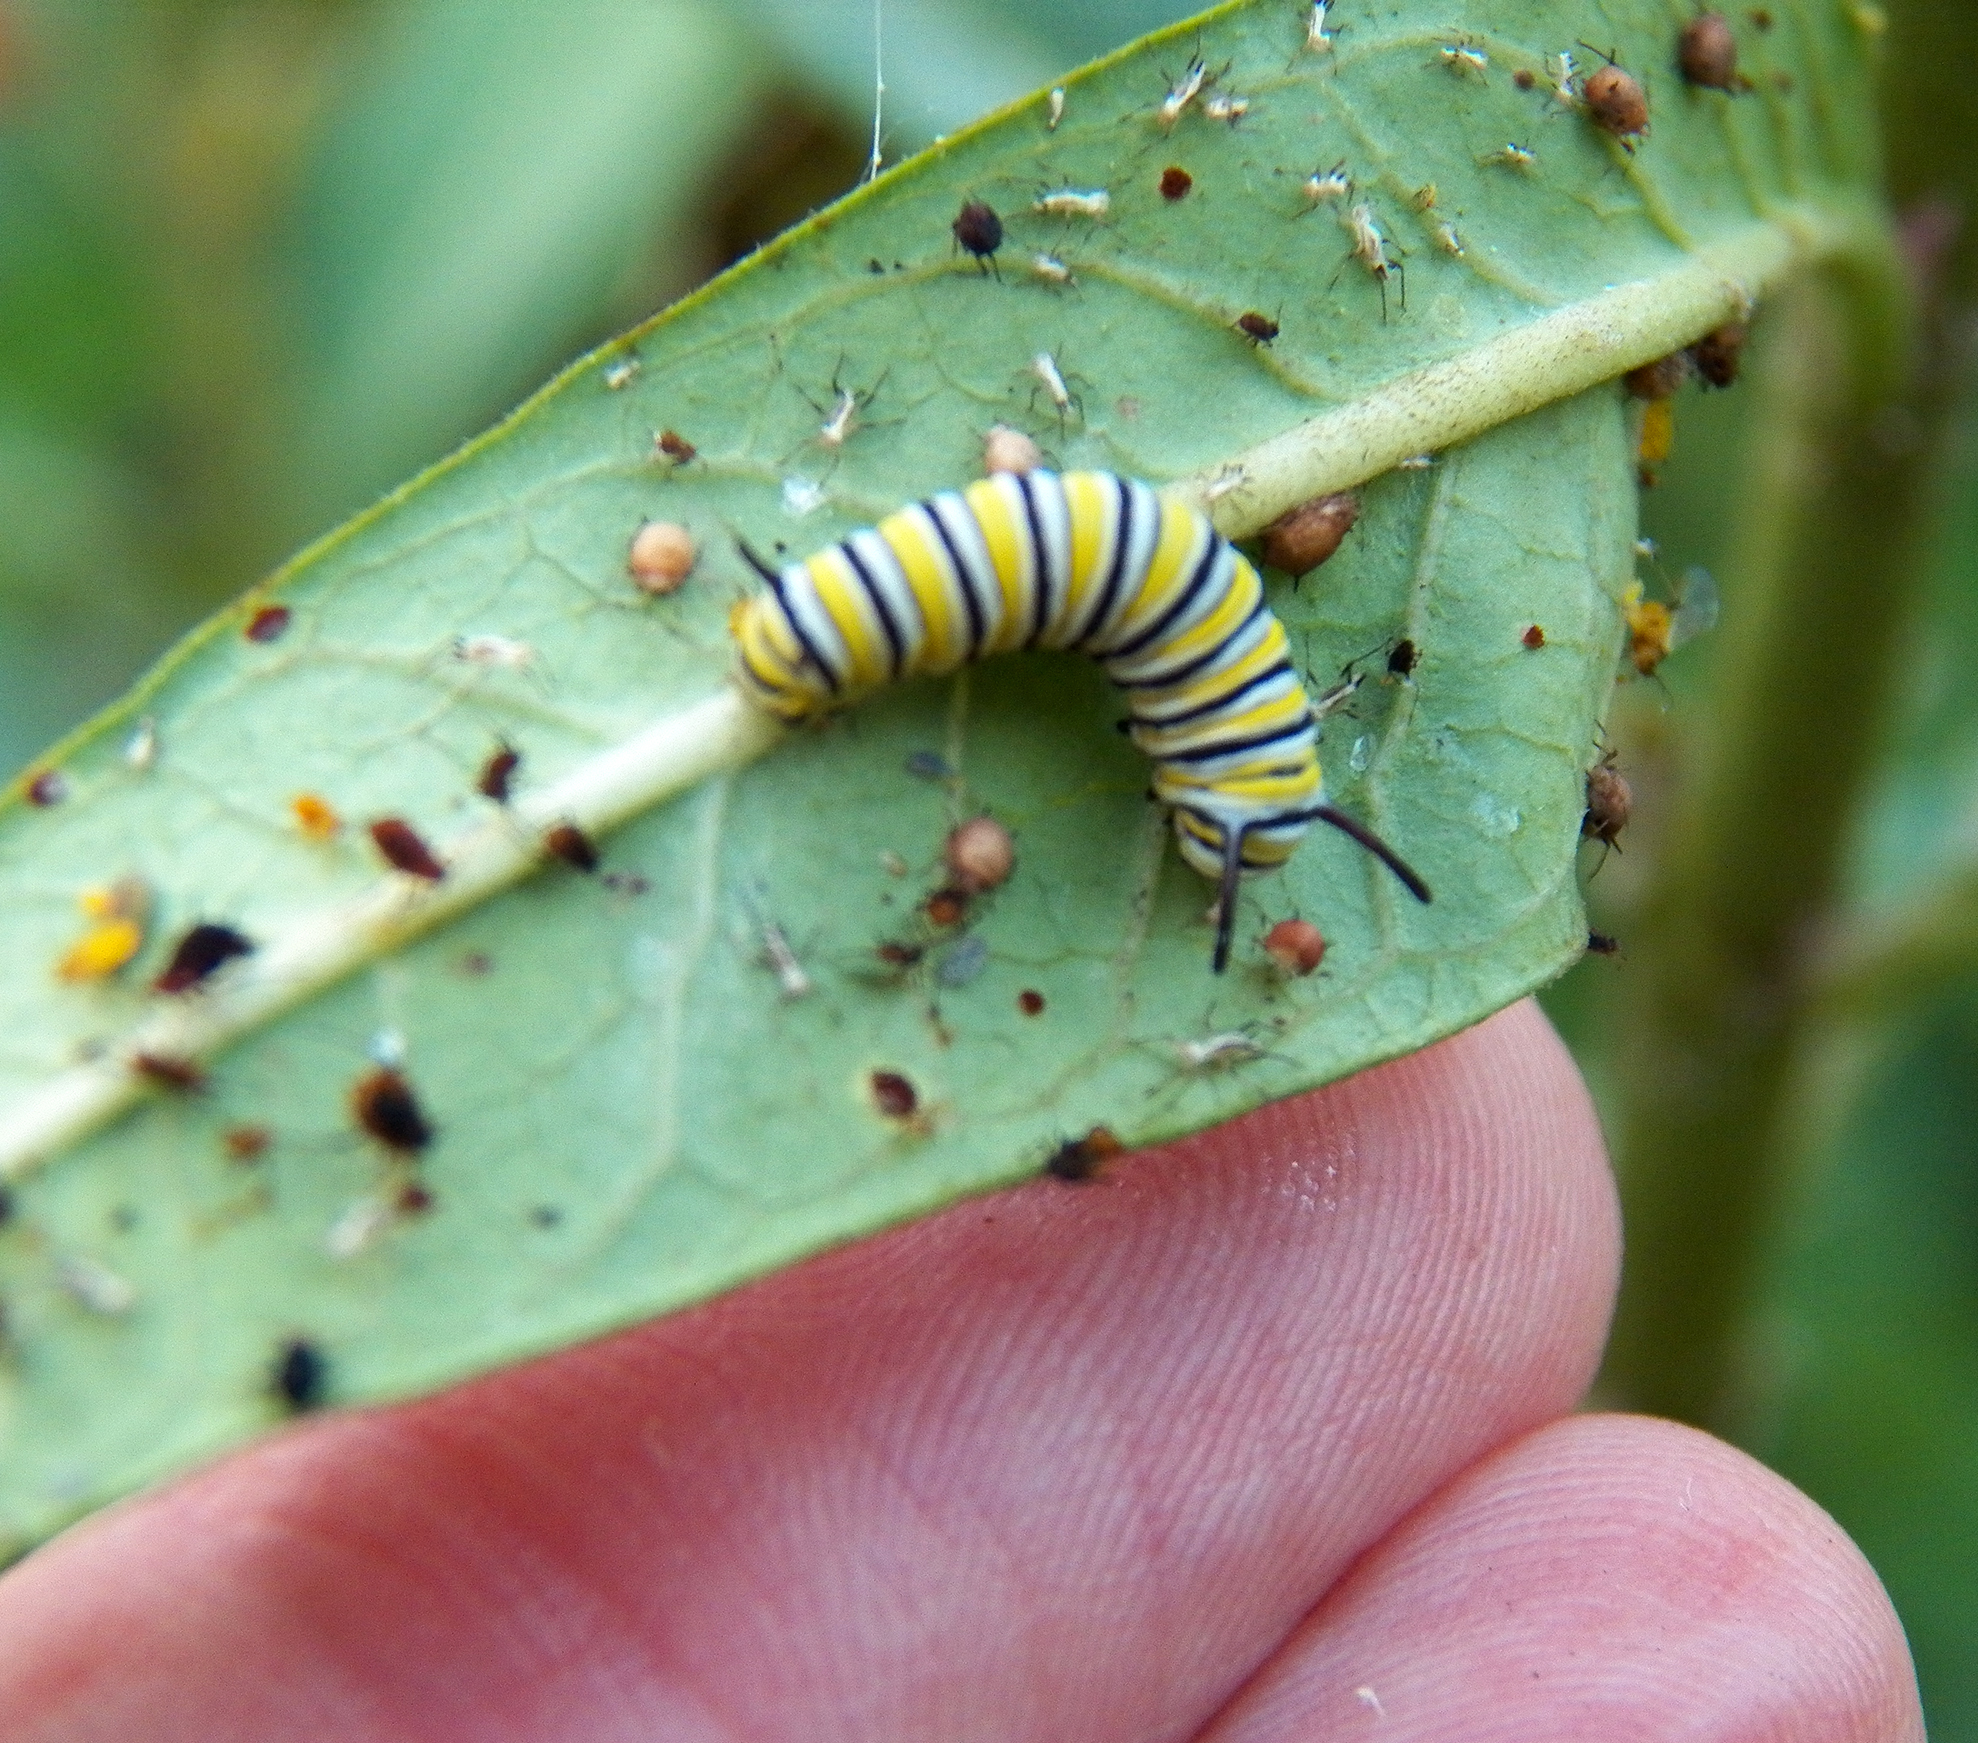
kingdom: Animalia
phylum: Arthropoda
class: Insecta
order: Lepidoptera
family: Nymphalidae
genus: Danaus
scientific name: Danaus plexippus
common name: Monarch
